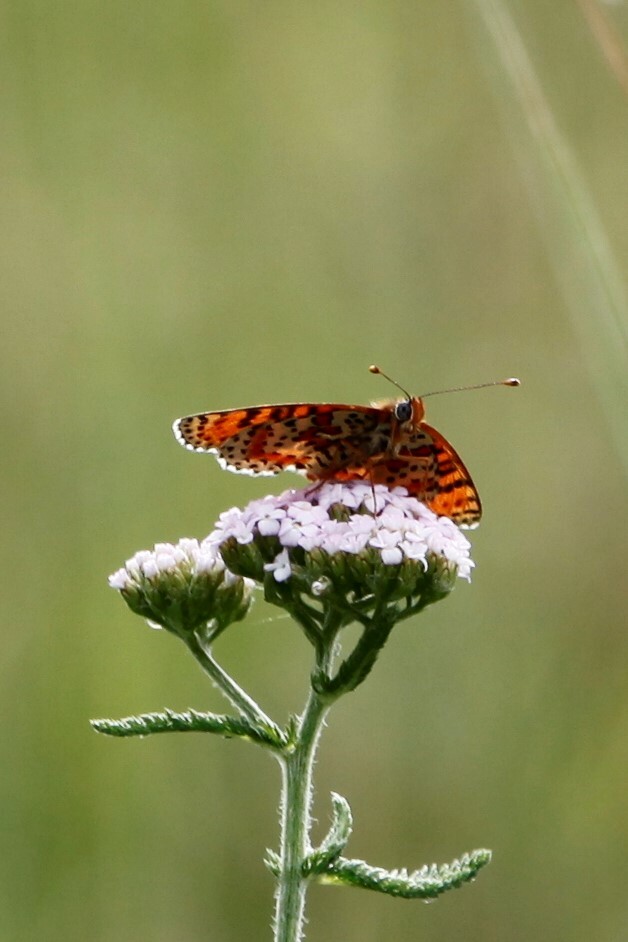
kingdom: Animalia
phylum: Arthropoda
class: Insecta
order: Lepidoptera
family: Nymphalidae
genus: Melitaea
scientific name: Melitaea didyma
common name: Spotted fritillary
